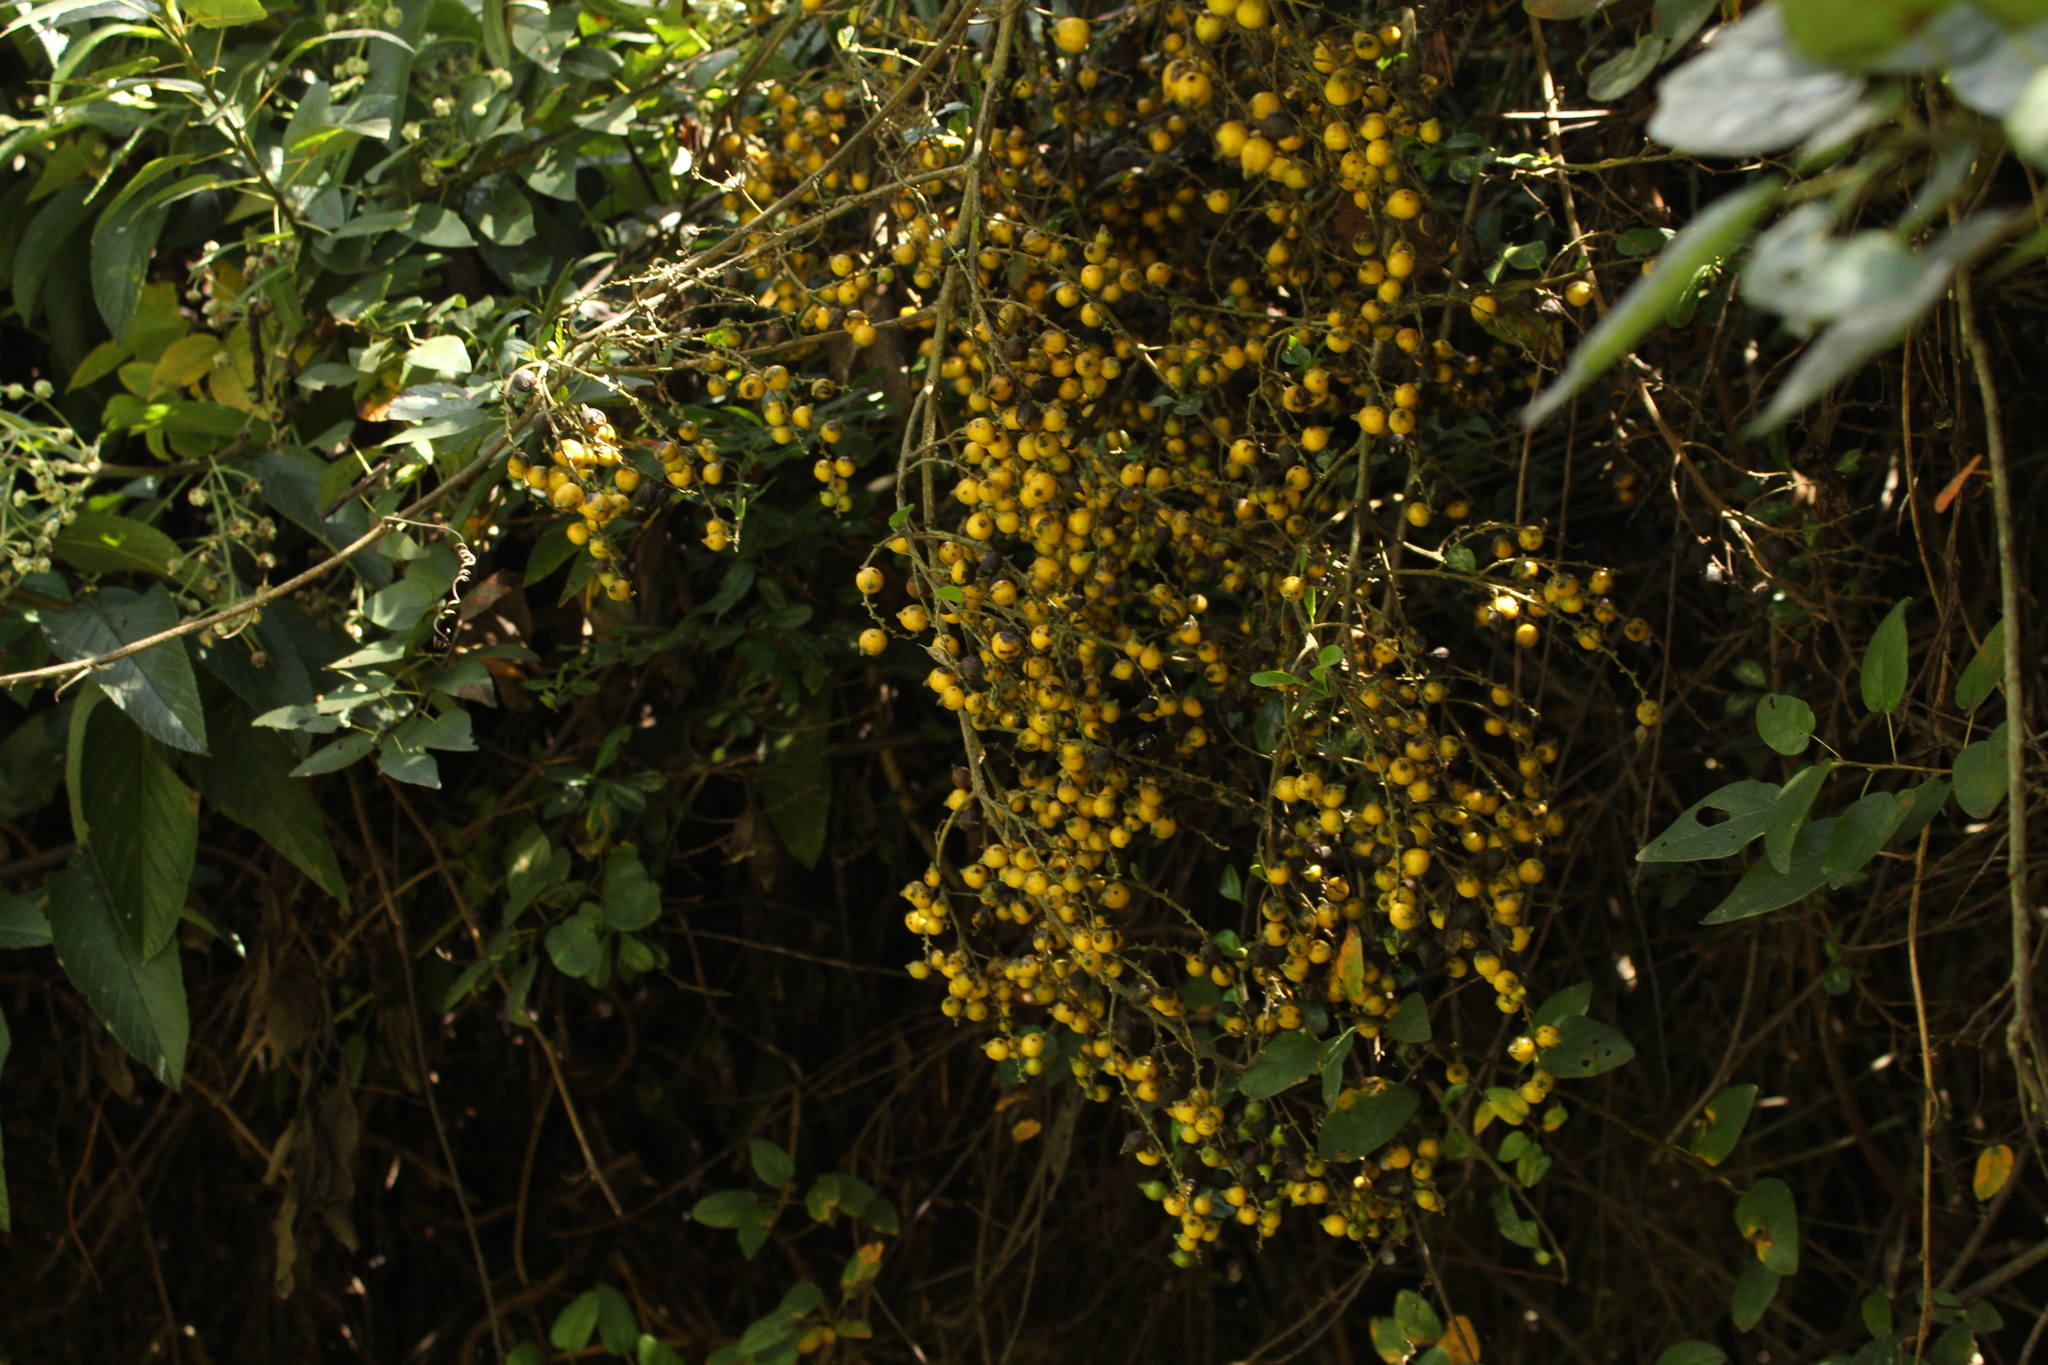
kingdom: Plantae
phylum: Tracheophyta
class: Magnoliopsida
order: Lamiales
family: Verbenaceae
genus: Duranta
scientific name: Duranta mutisii
